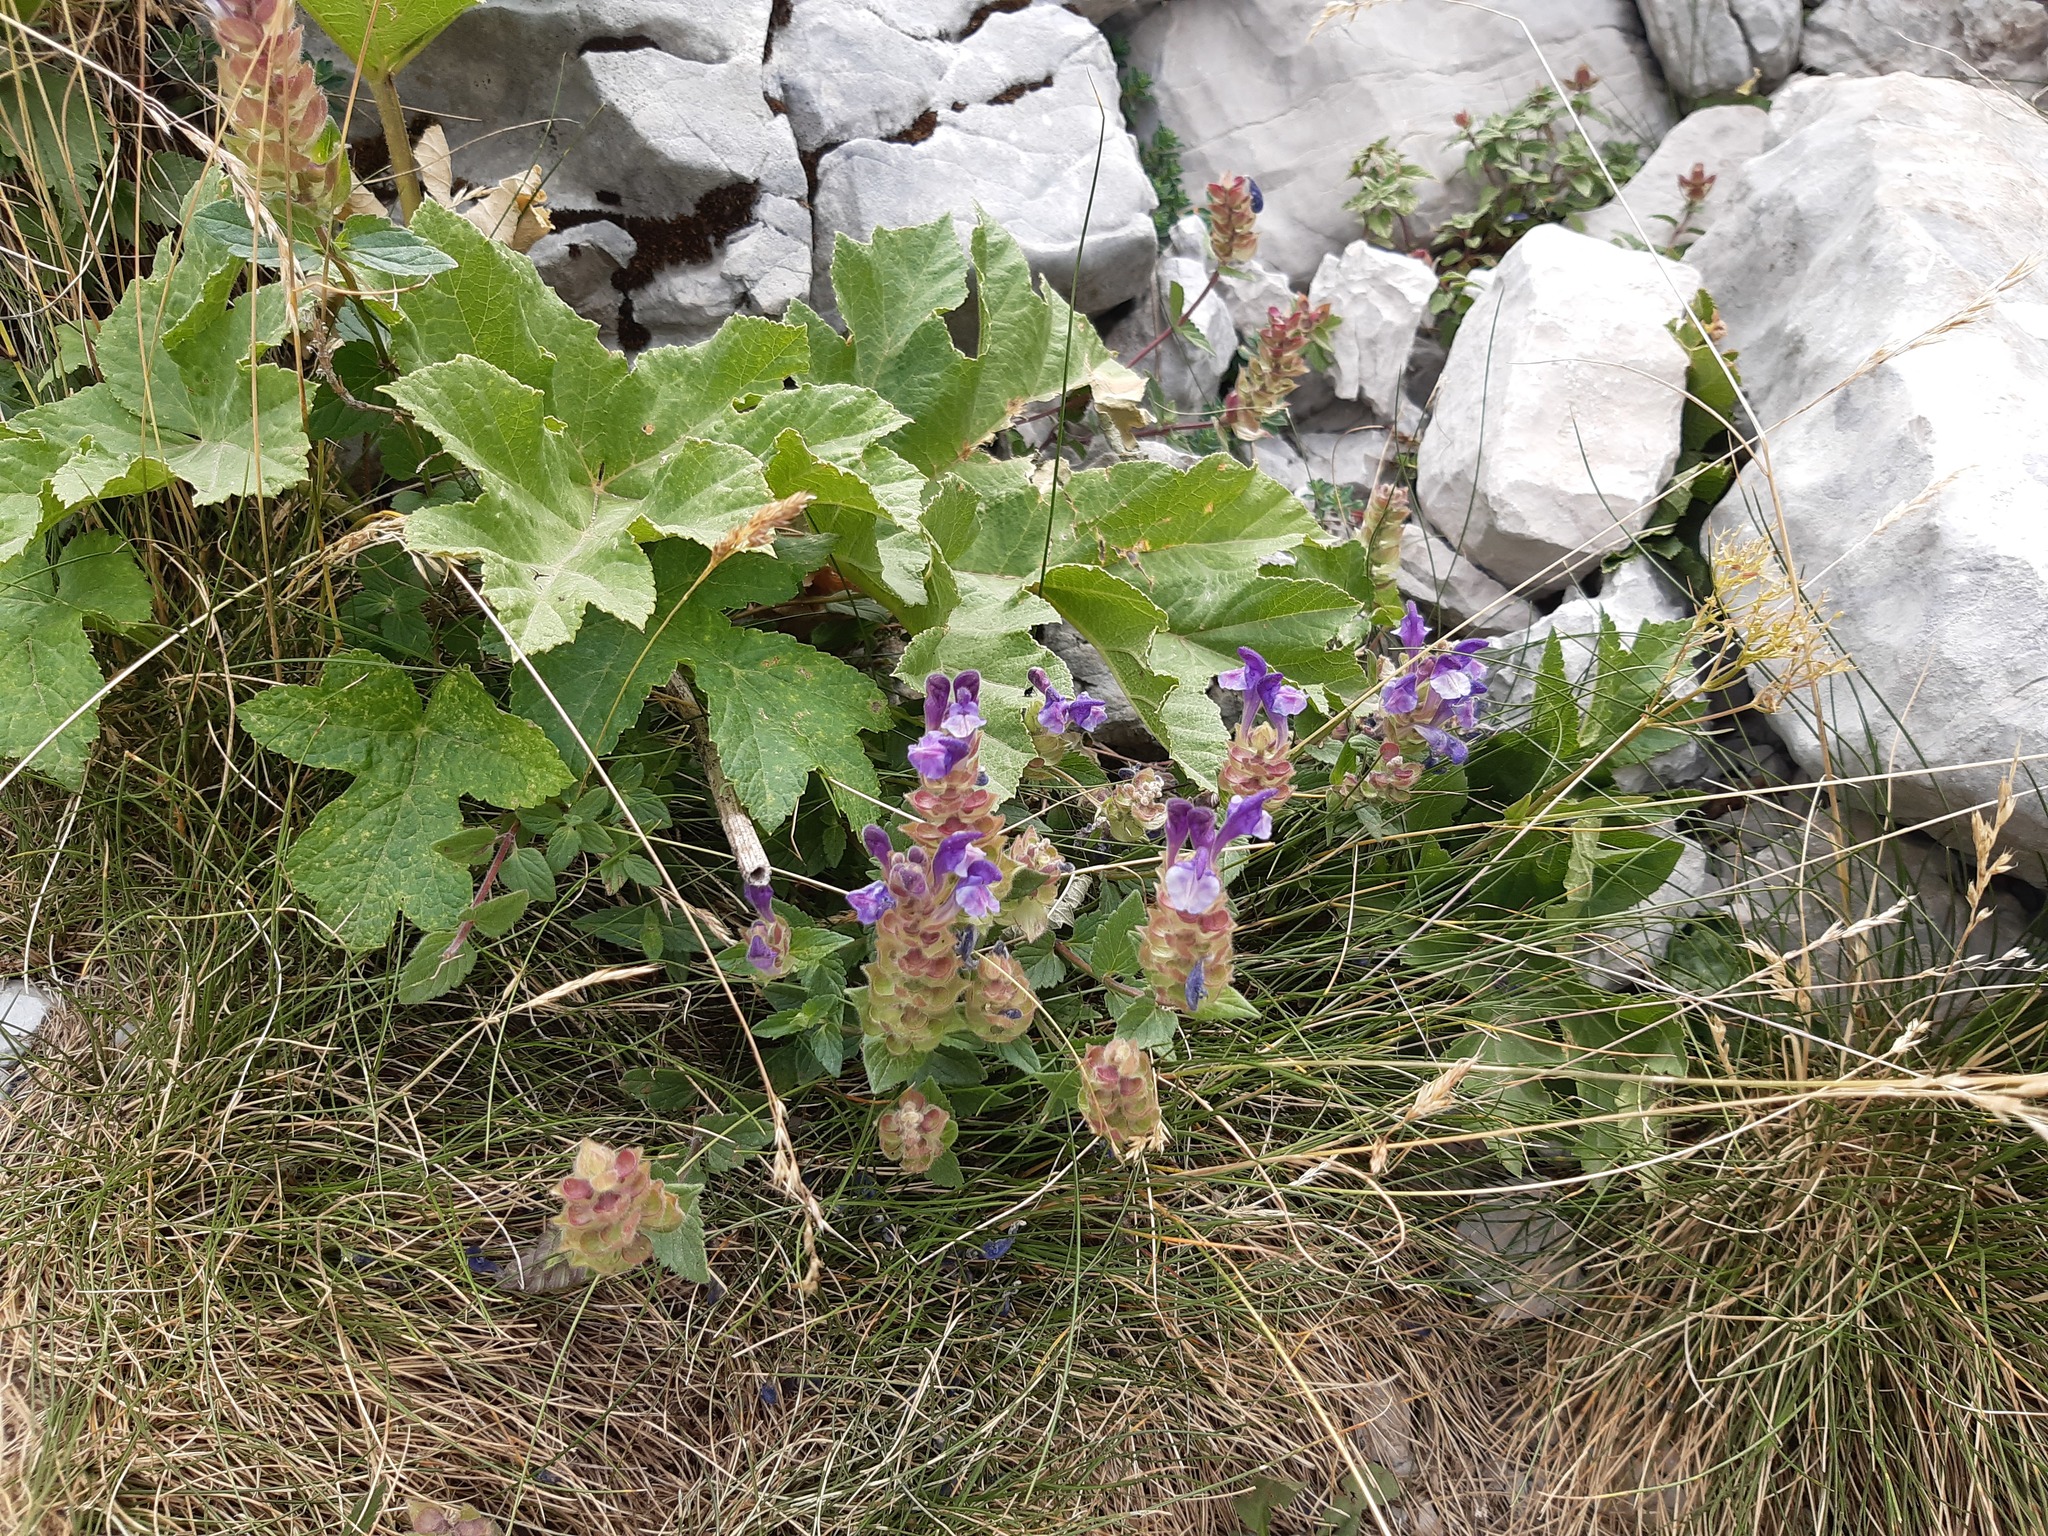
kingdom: Plantae
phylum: Tracheophyta
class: Magnoliopsida
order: Lamiales
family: Lamiaceae
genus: Scutellaria
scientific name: Scutellaria alpina
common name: Alpine scullcap
